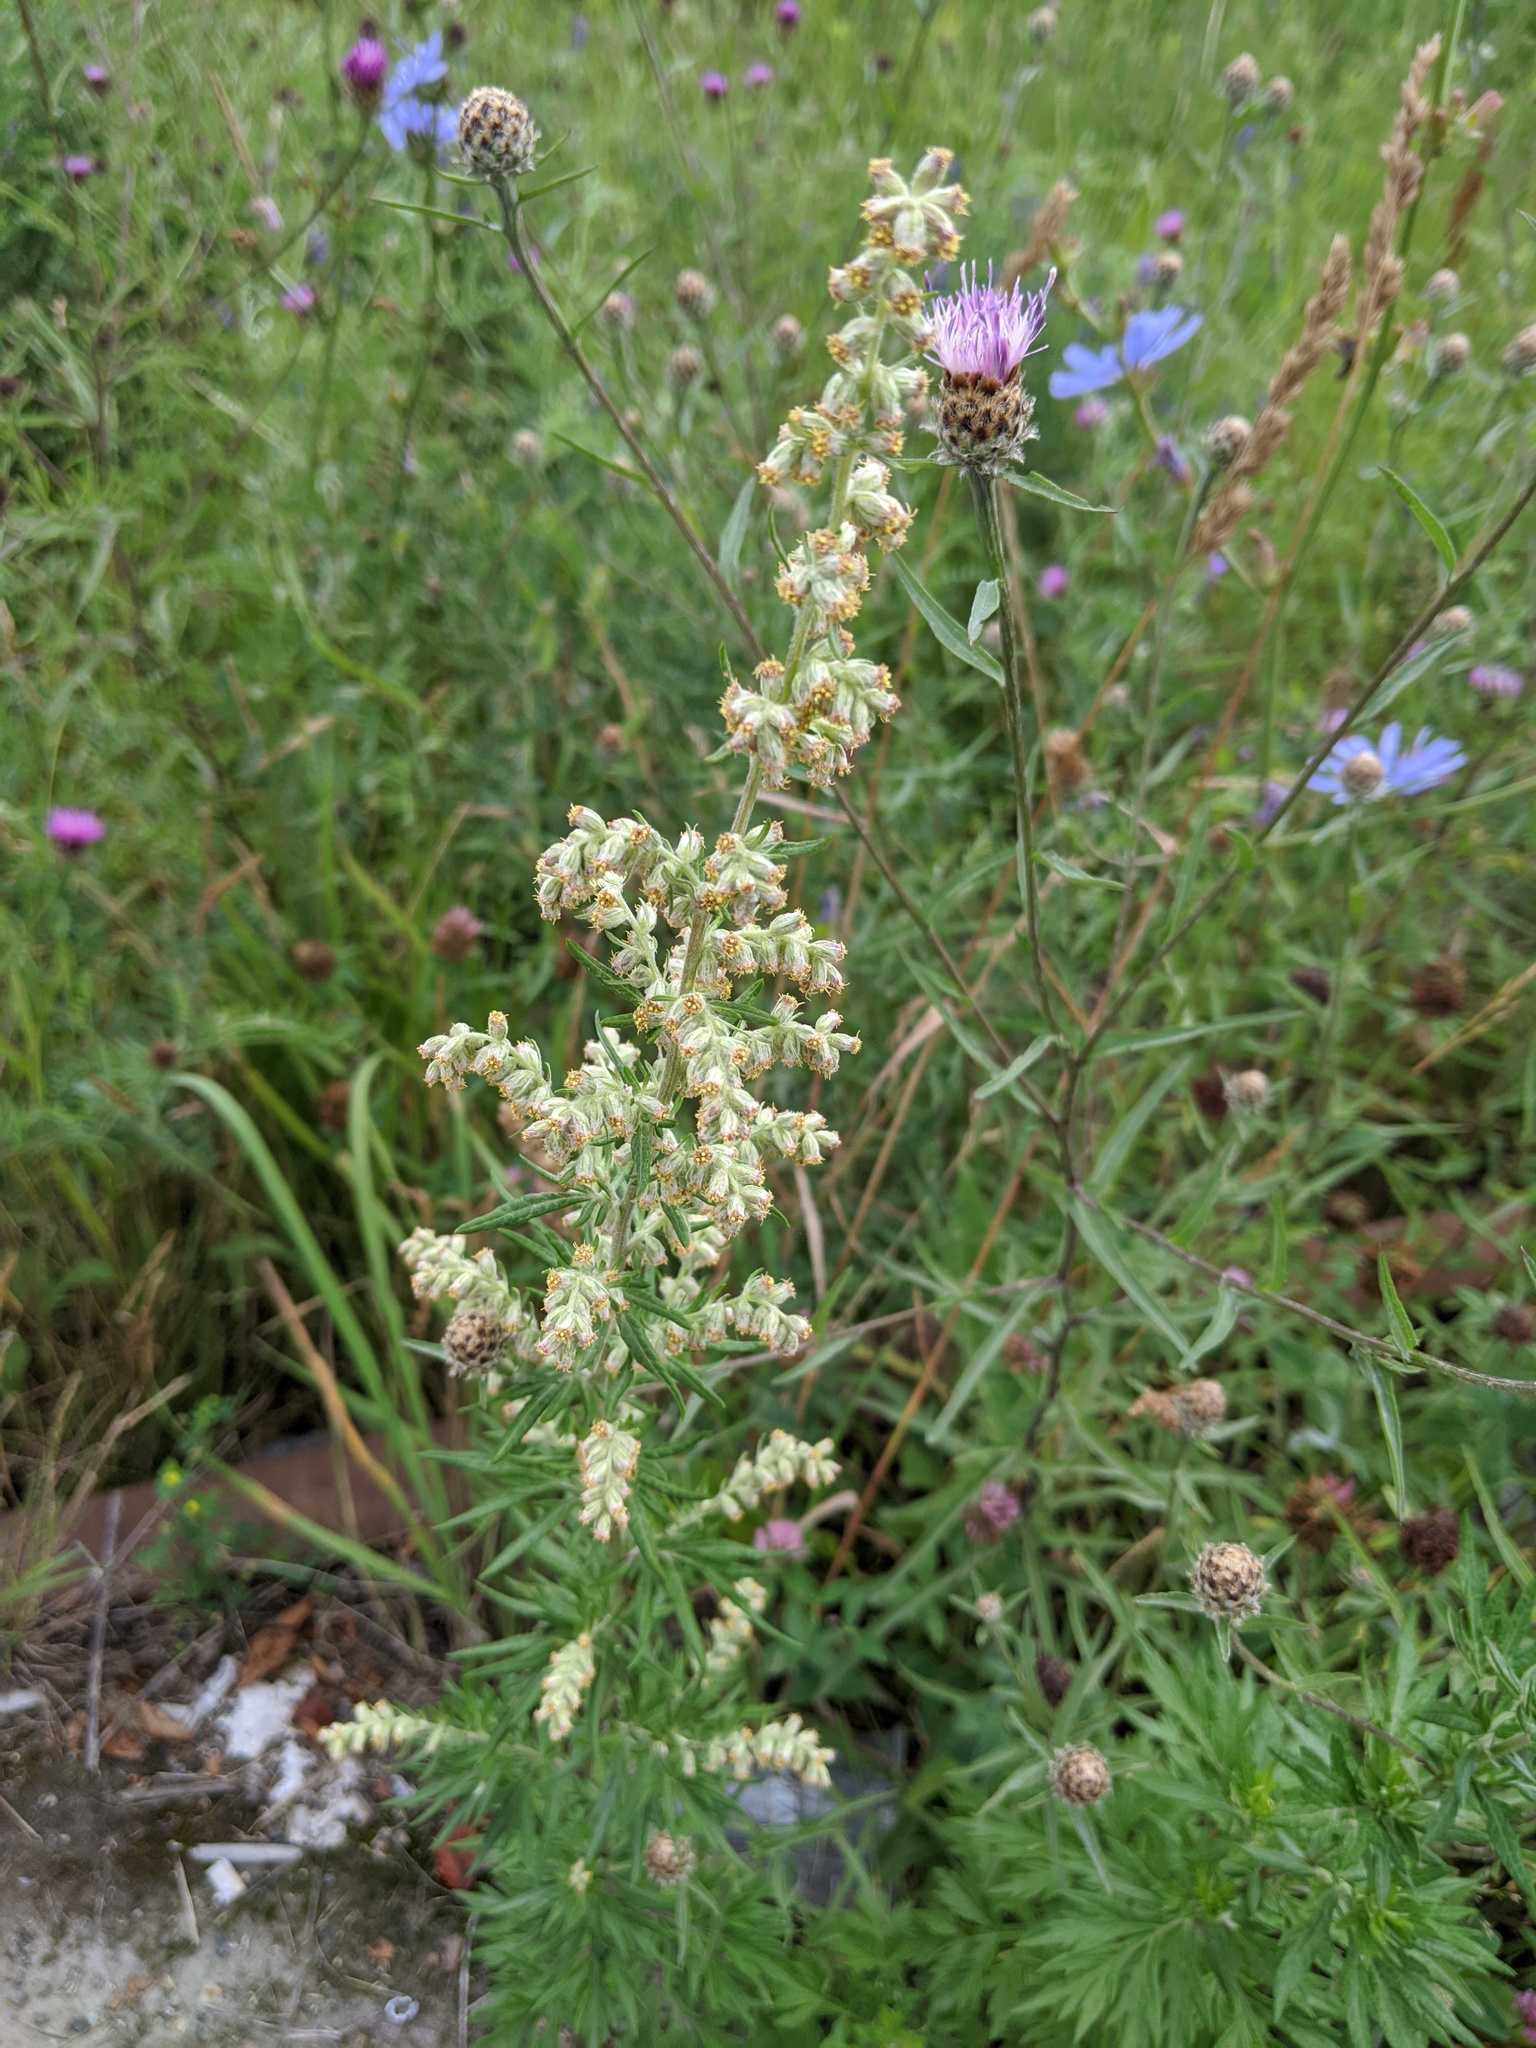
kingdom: Plantae
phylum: Tracheophyta
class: Magnoliopsida
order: Asterales
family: Asteraceae
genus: Artemisia
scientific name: Artemisia vulgaris
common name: Mugwort
